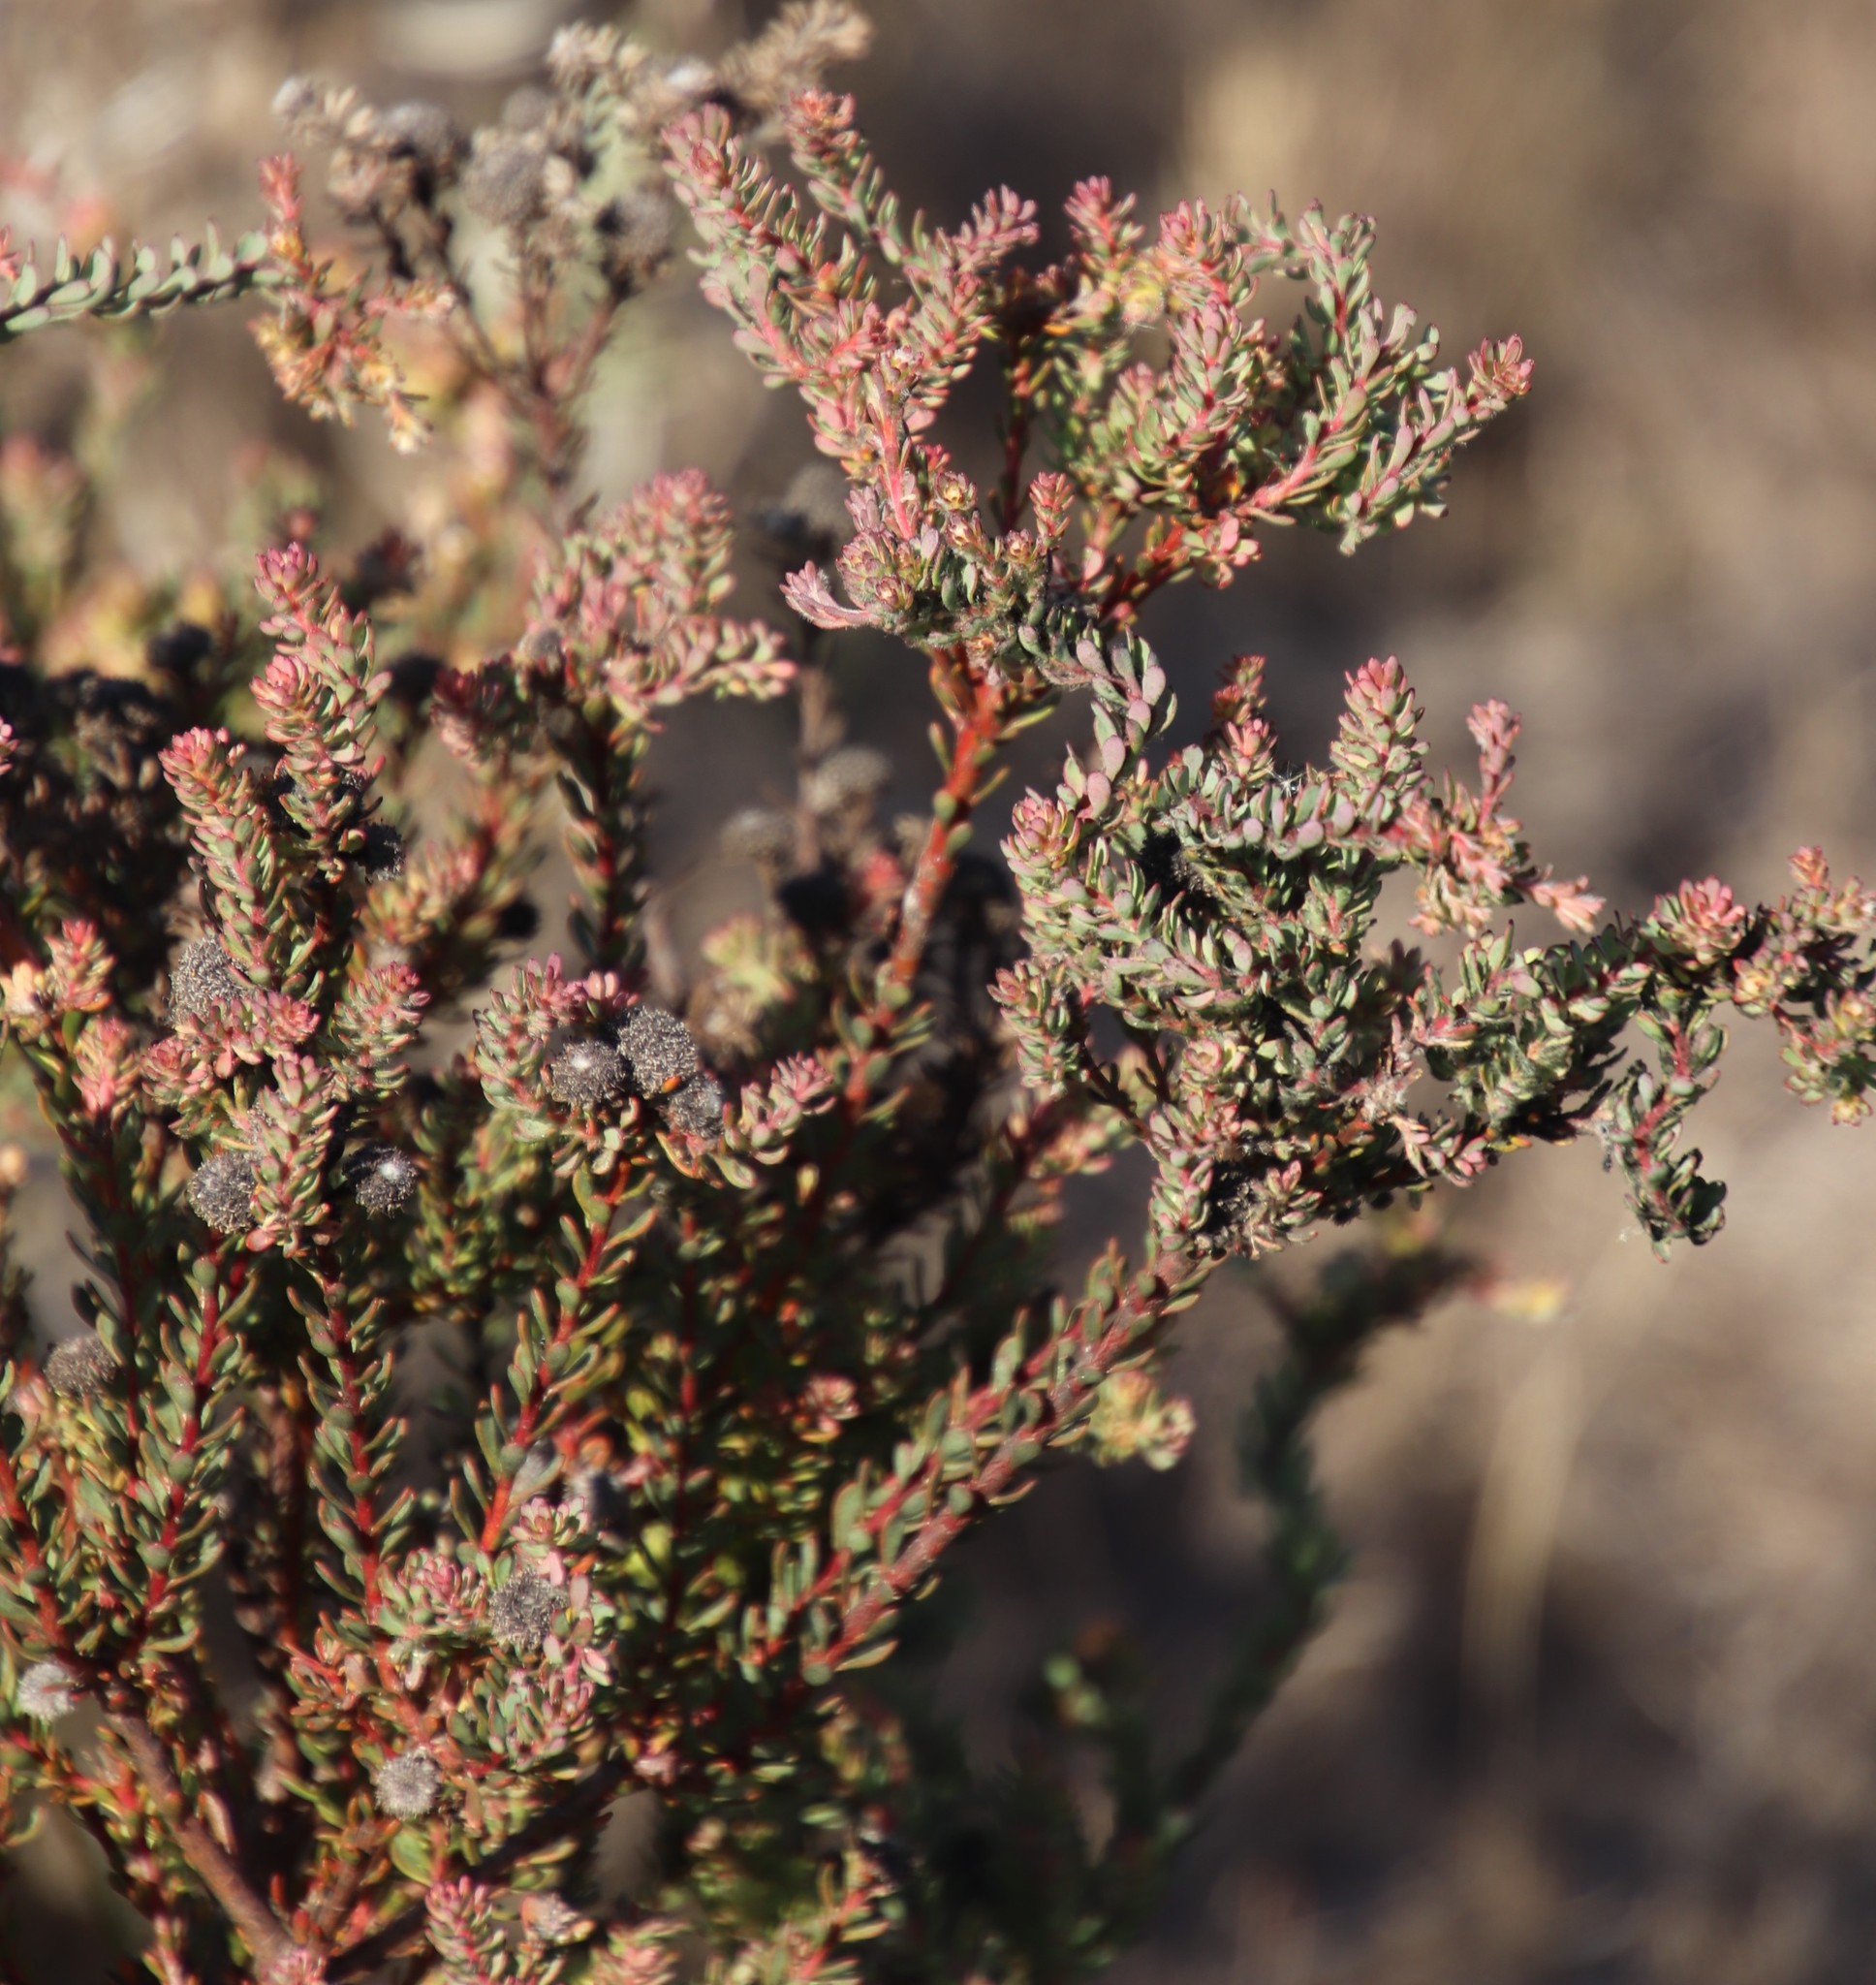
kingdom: Plantae
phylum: Tracheophyta
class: Magnoliopsida
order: Proteales
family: Proteaceae
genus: Leucadendron
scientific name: Leucadendron levisanus
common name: Cape flats conebush
